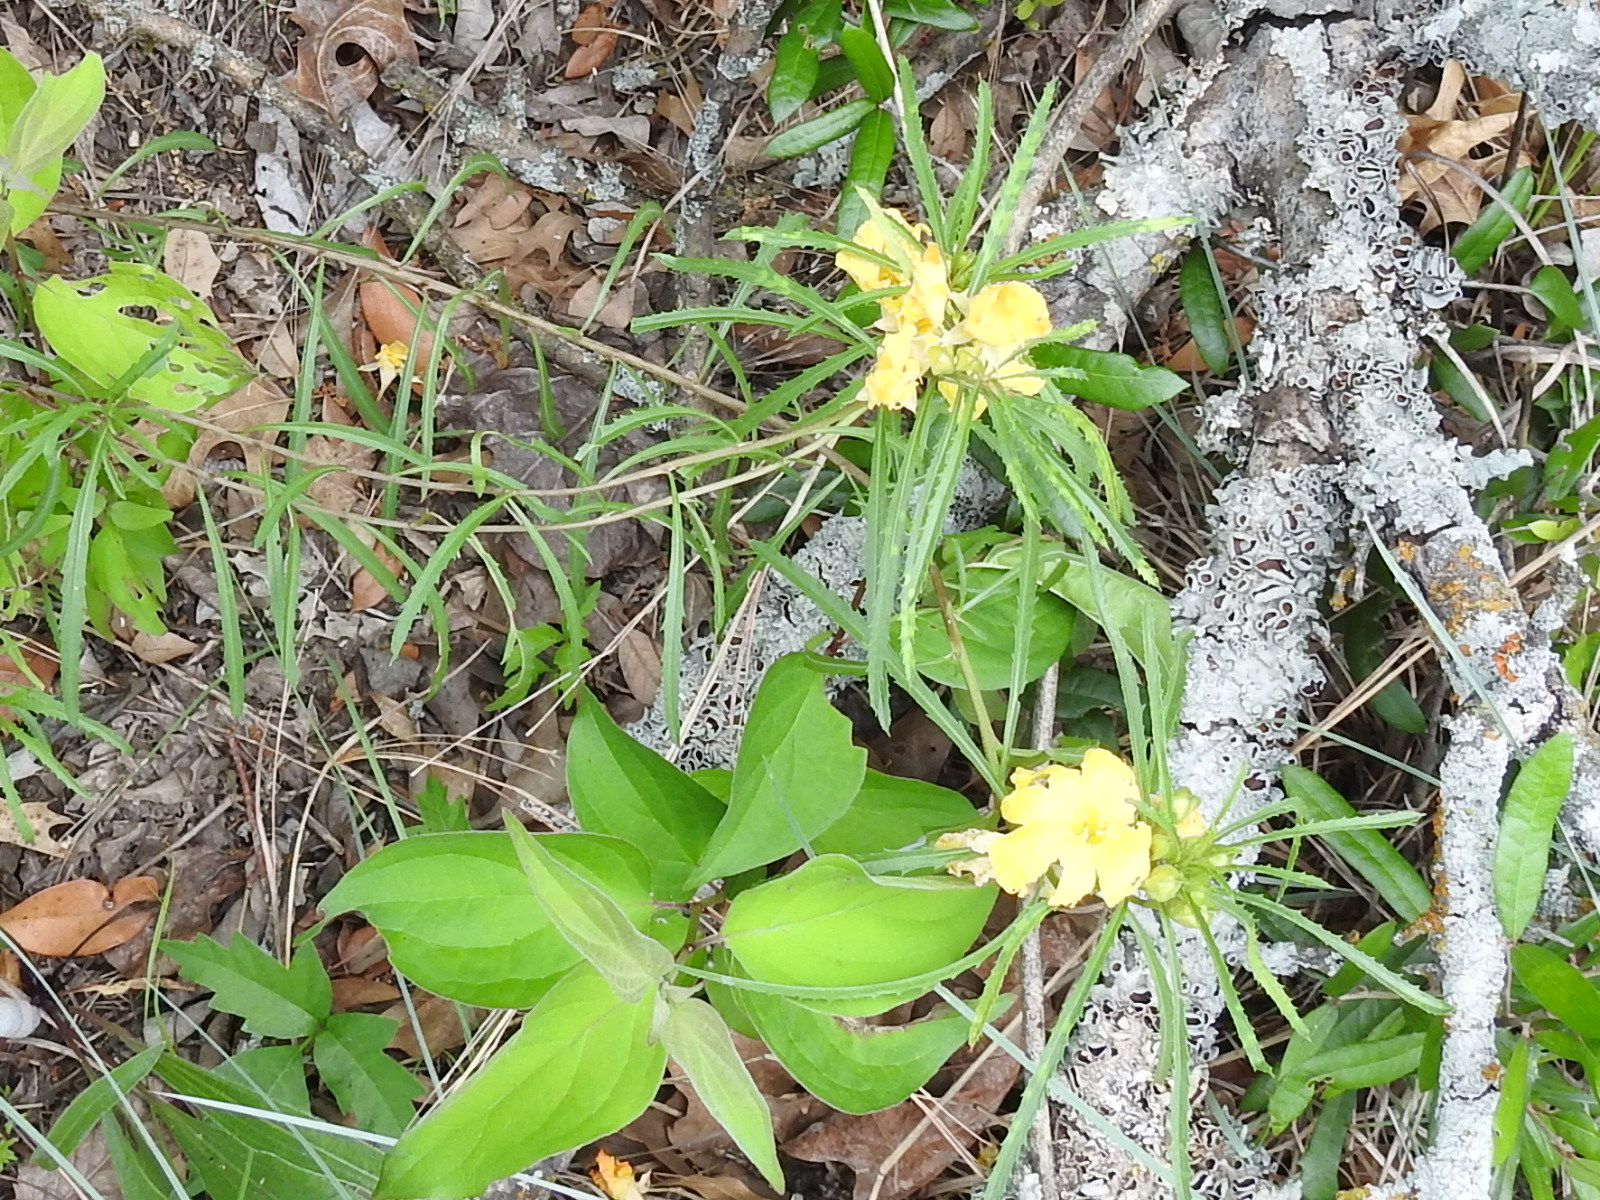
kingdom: Plantae
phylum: Tracheophyta
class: Magnoliopsida
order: Myrtales
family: Onagraceae
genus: Oenothera
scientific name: Oenothera
